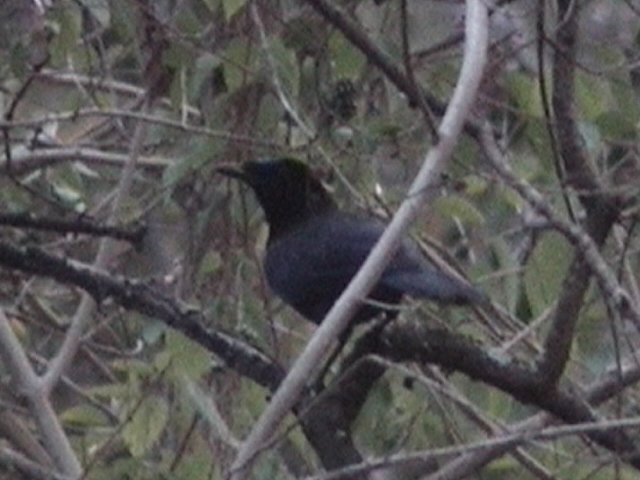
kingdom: Animalia
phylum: Chordata
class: Aves
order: Passeriformes
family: Muscicapidae
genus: Myophonus
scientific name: Myophonus horsfieldii
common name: Malabar whistling-thrush
